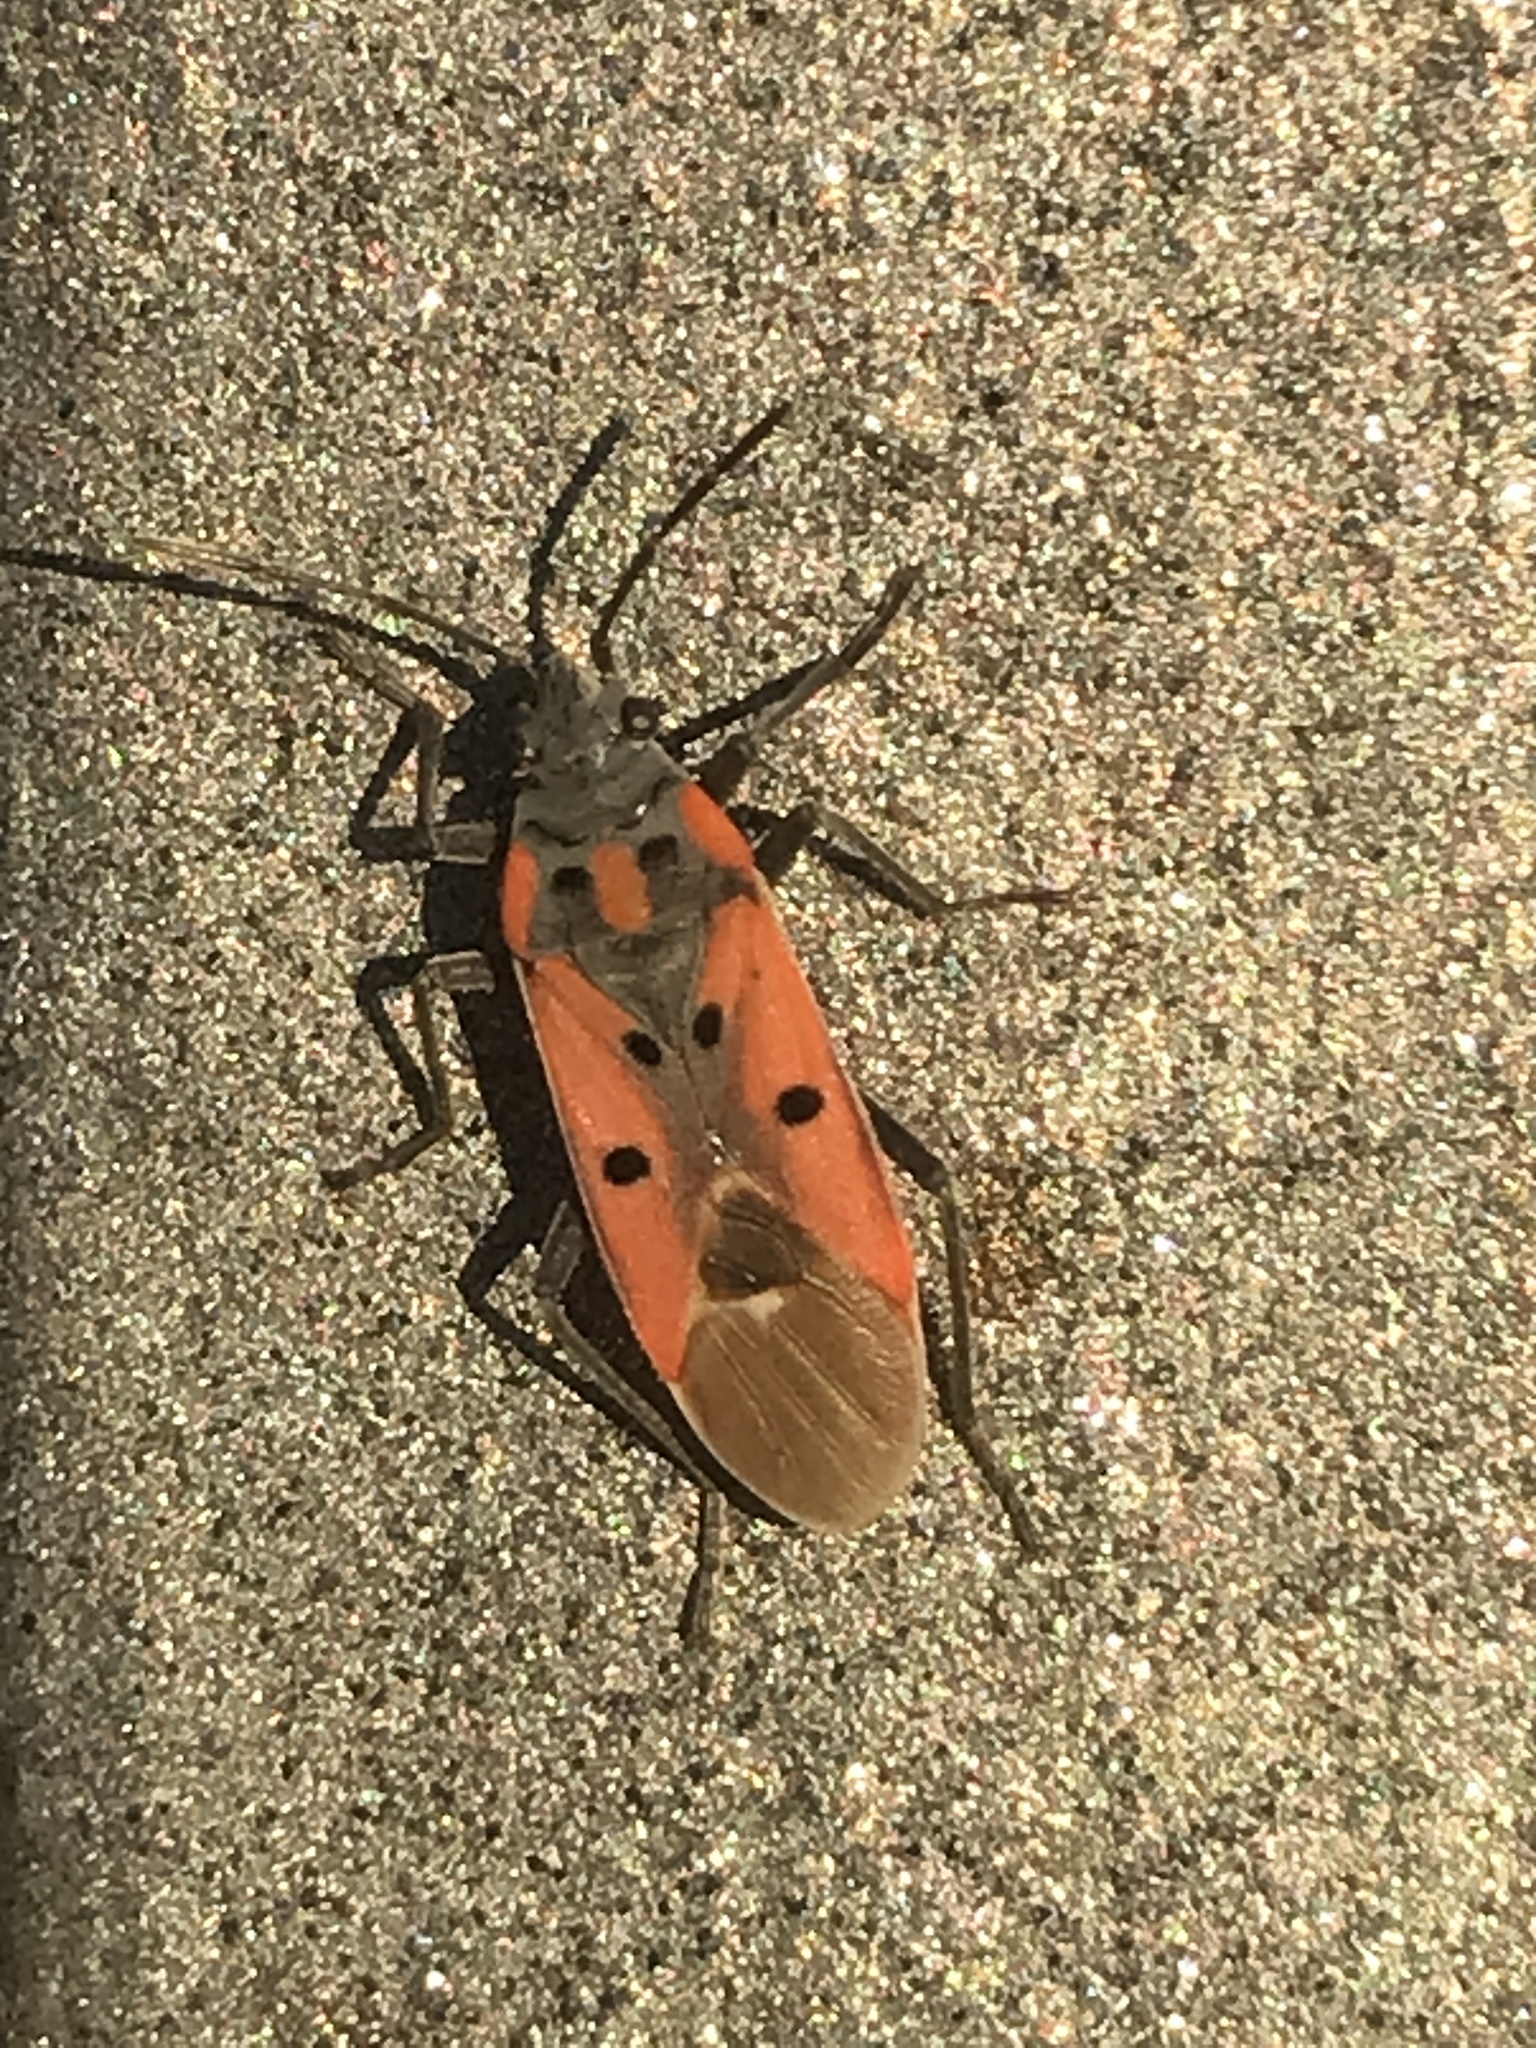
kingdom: Animalia
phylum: Arthropoda
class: Insecta
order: Hemiptera
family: Lygaeidae
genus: Lygaeus
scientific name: Lygaeus creticus
